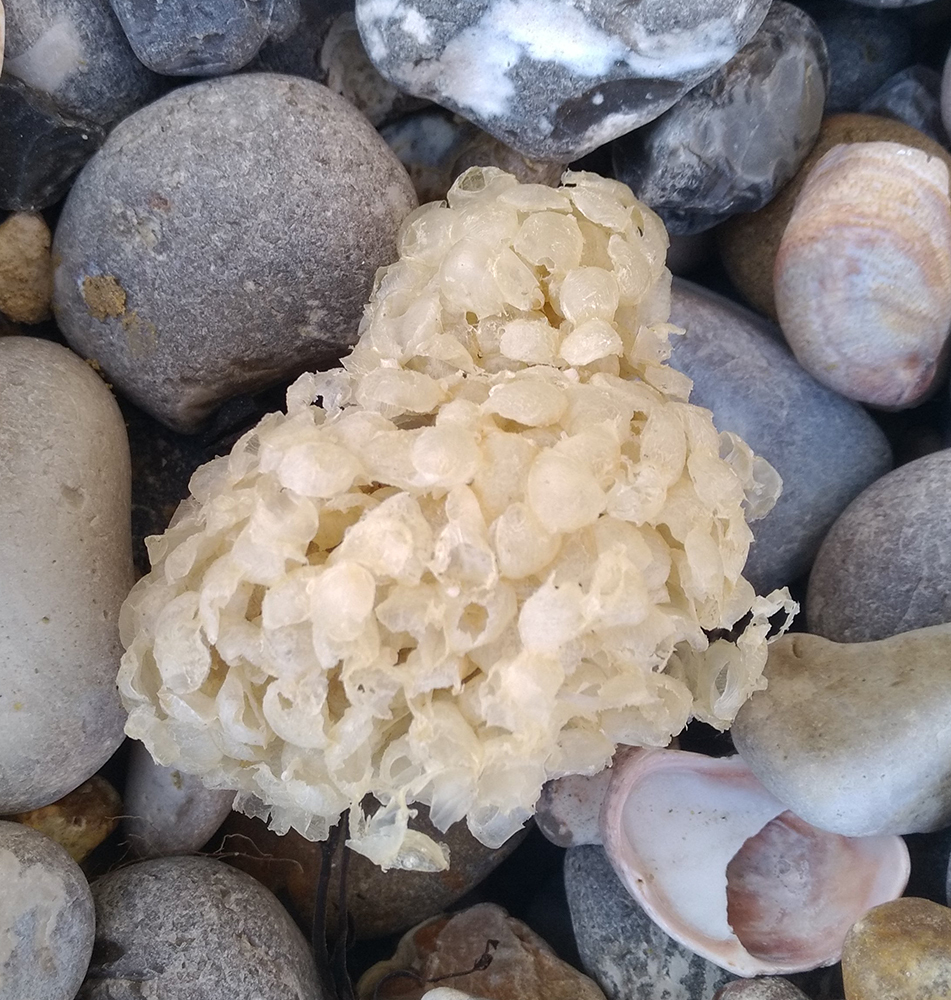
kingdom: Animalia
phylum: Mollusca
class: Gastropoda
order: Neogastropoda
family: Buccinidae
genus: Buccinum
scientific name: Buccinum undatum
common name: Common whelk
